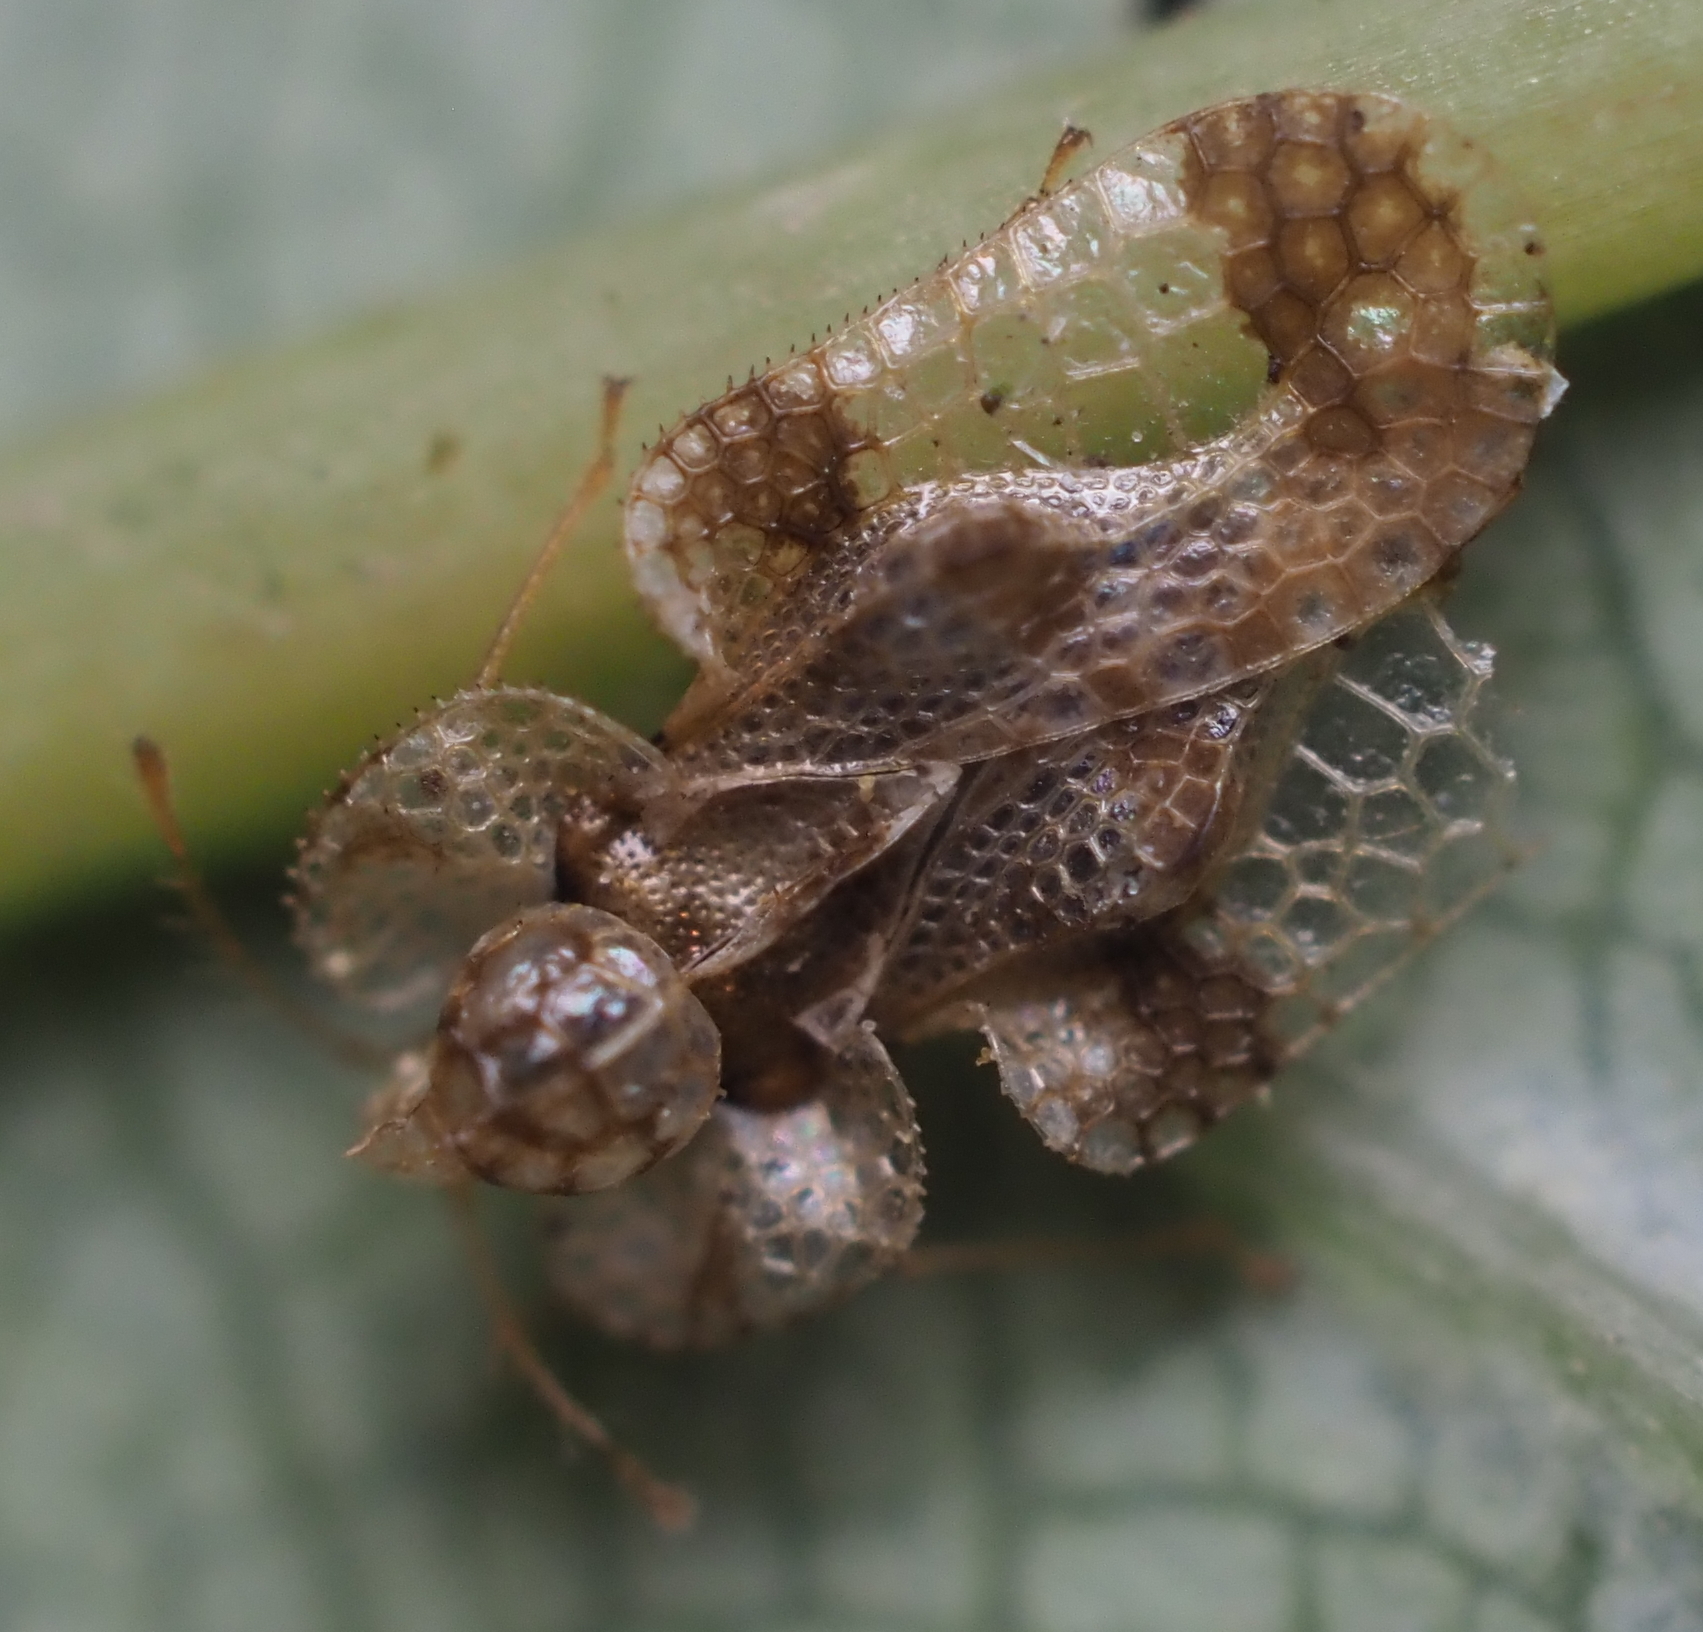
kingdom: Animalia
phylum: Arthropoda
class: Insecta
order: Hemiptera
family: Tingidae
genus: Corythucha
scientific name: Corythucha pruni
